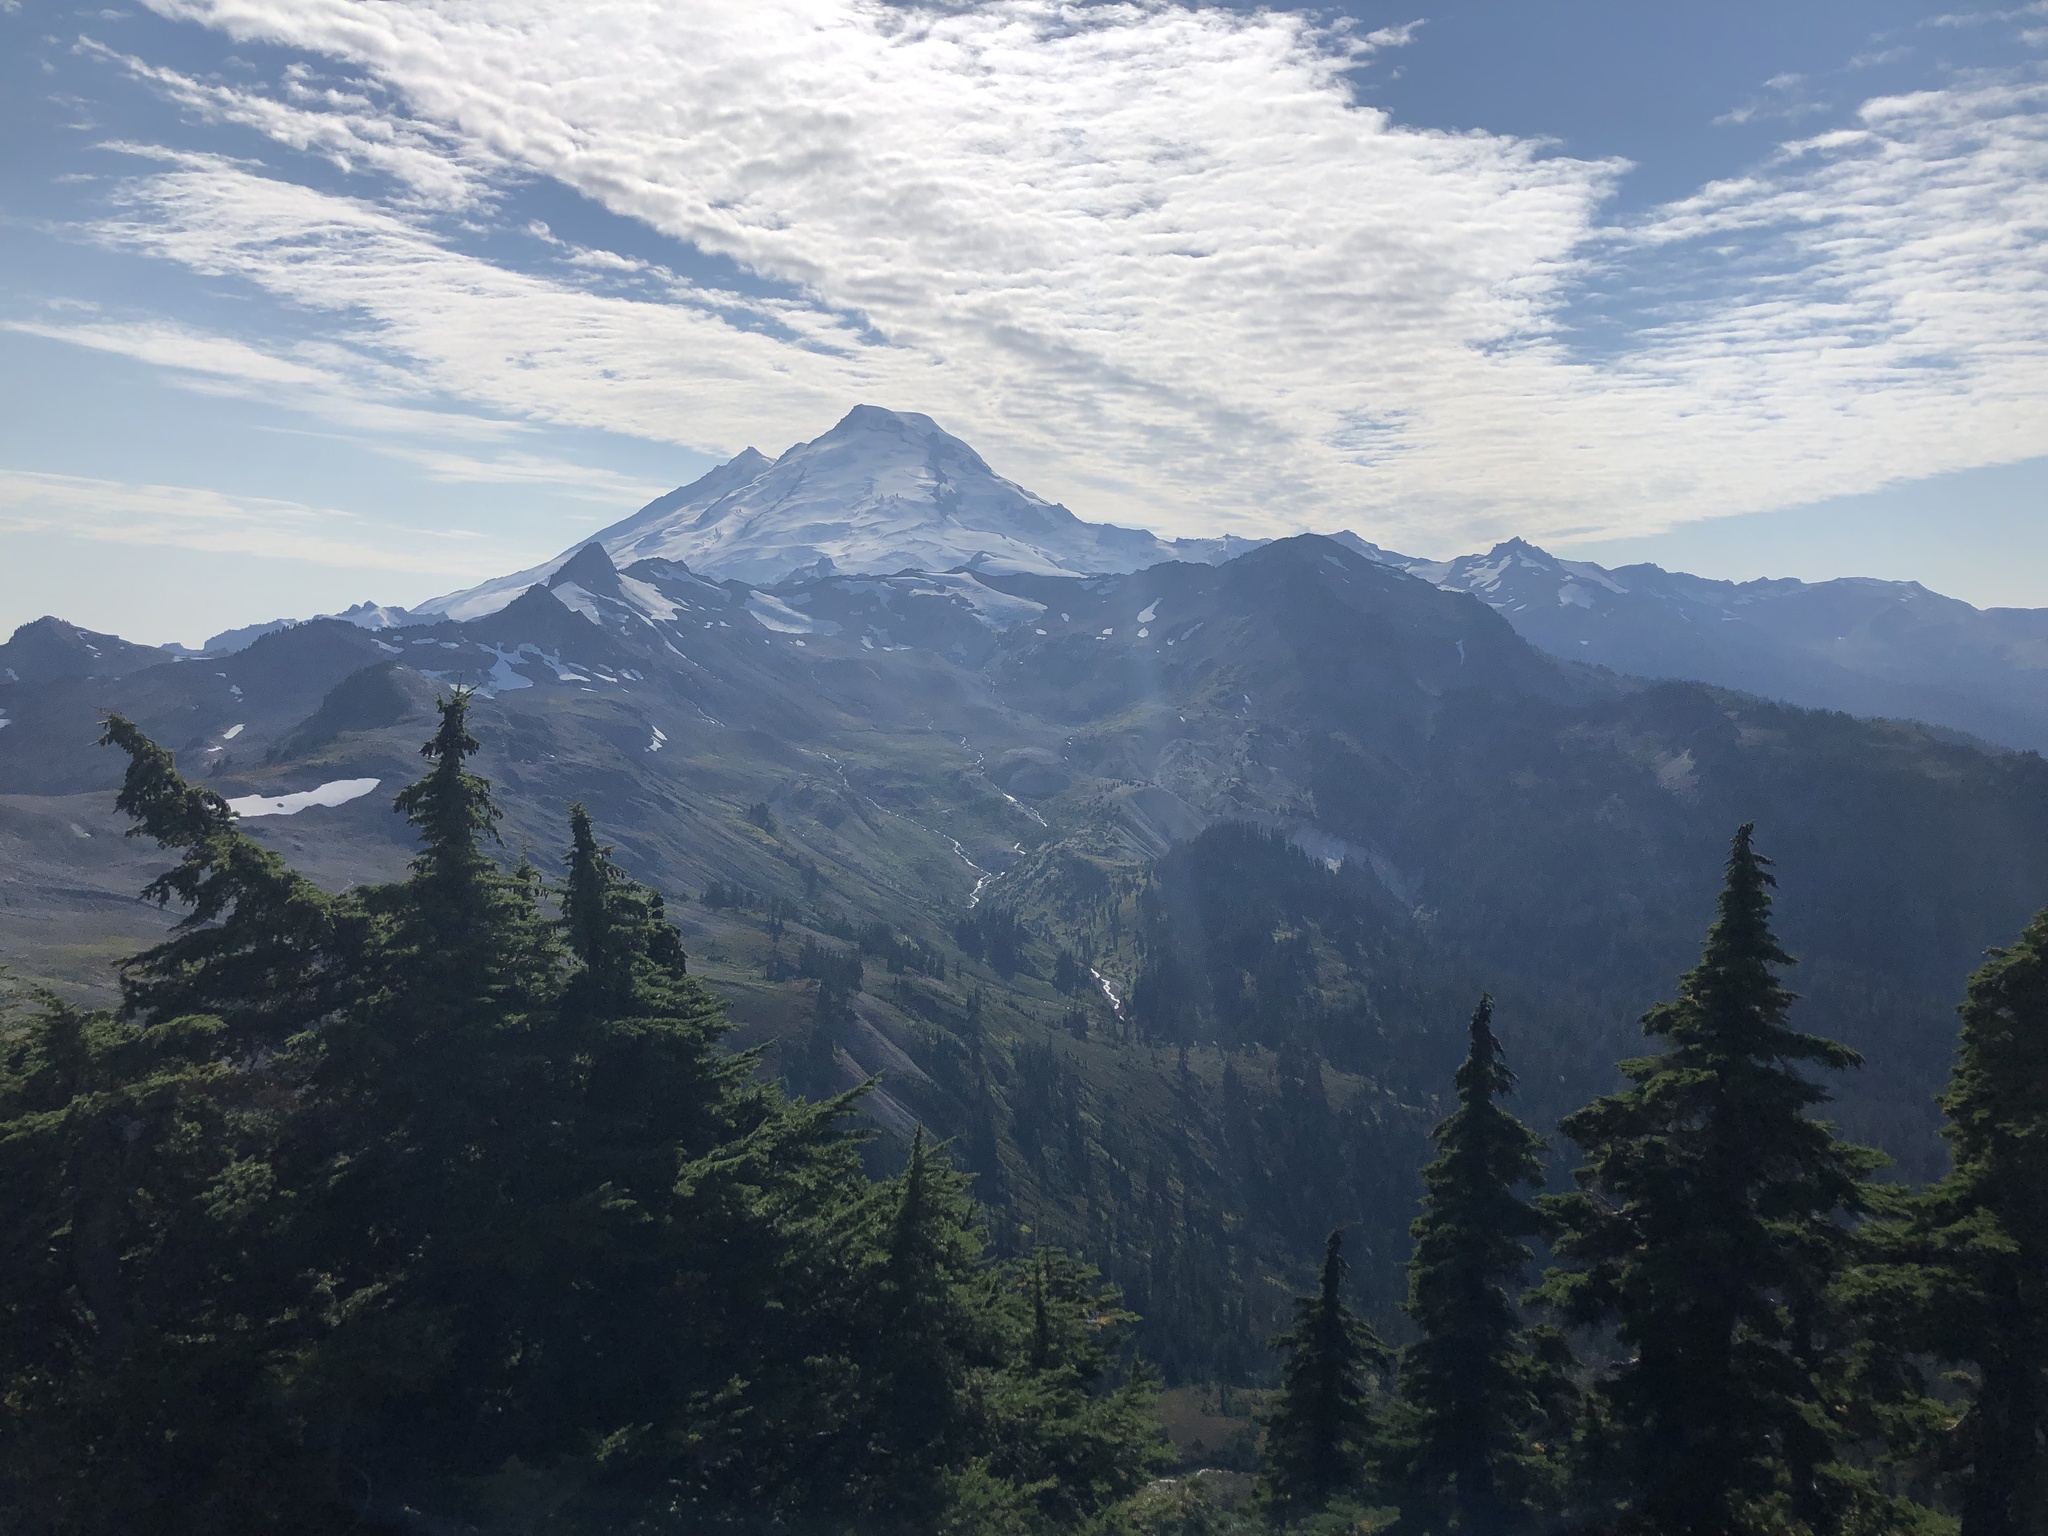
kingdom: Plantae
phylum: Tracheophyta
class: Pinopsida
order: Pinales
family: Pinaceae
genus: Tsuga
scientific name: Tsuga mertensiana
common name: Mountain hemlock
